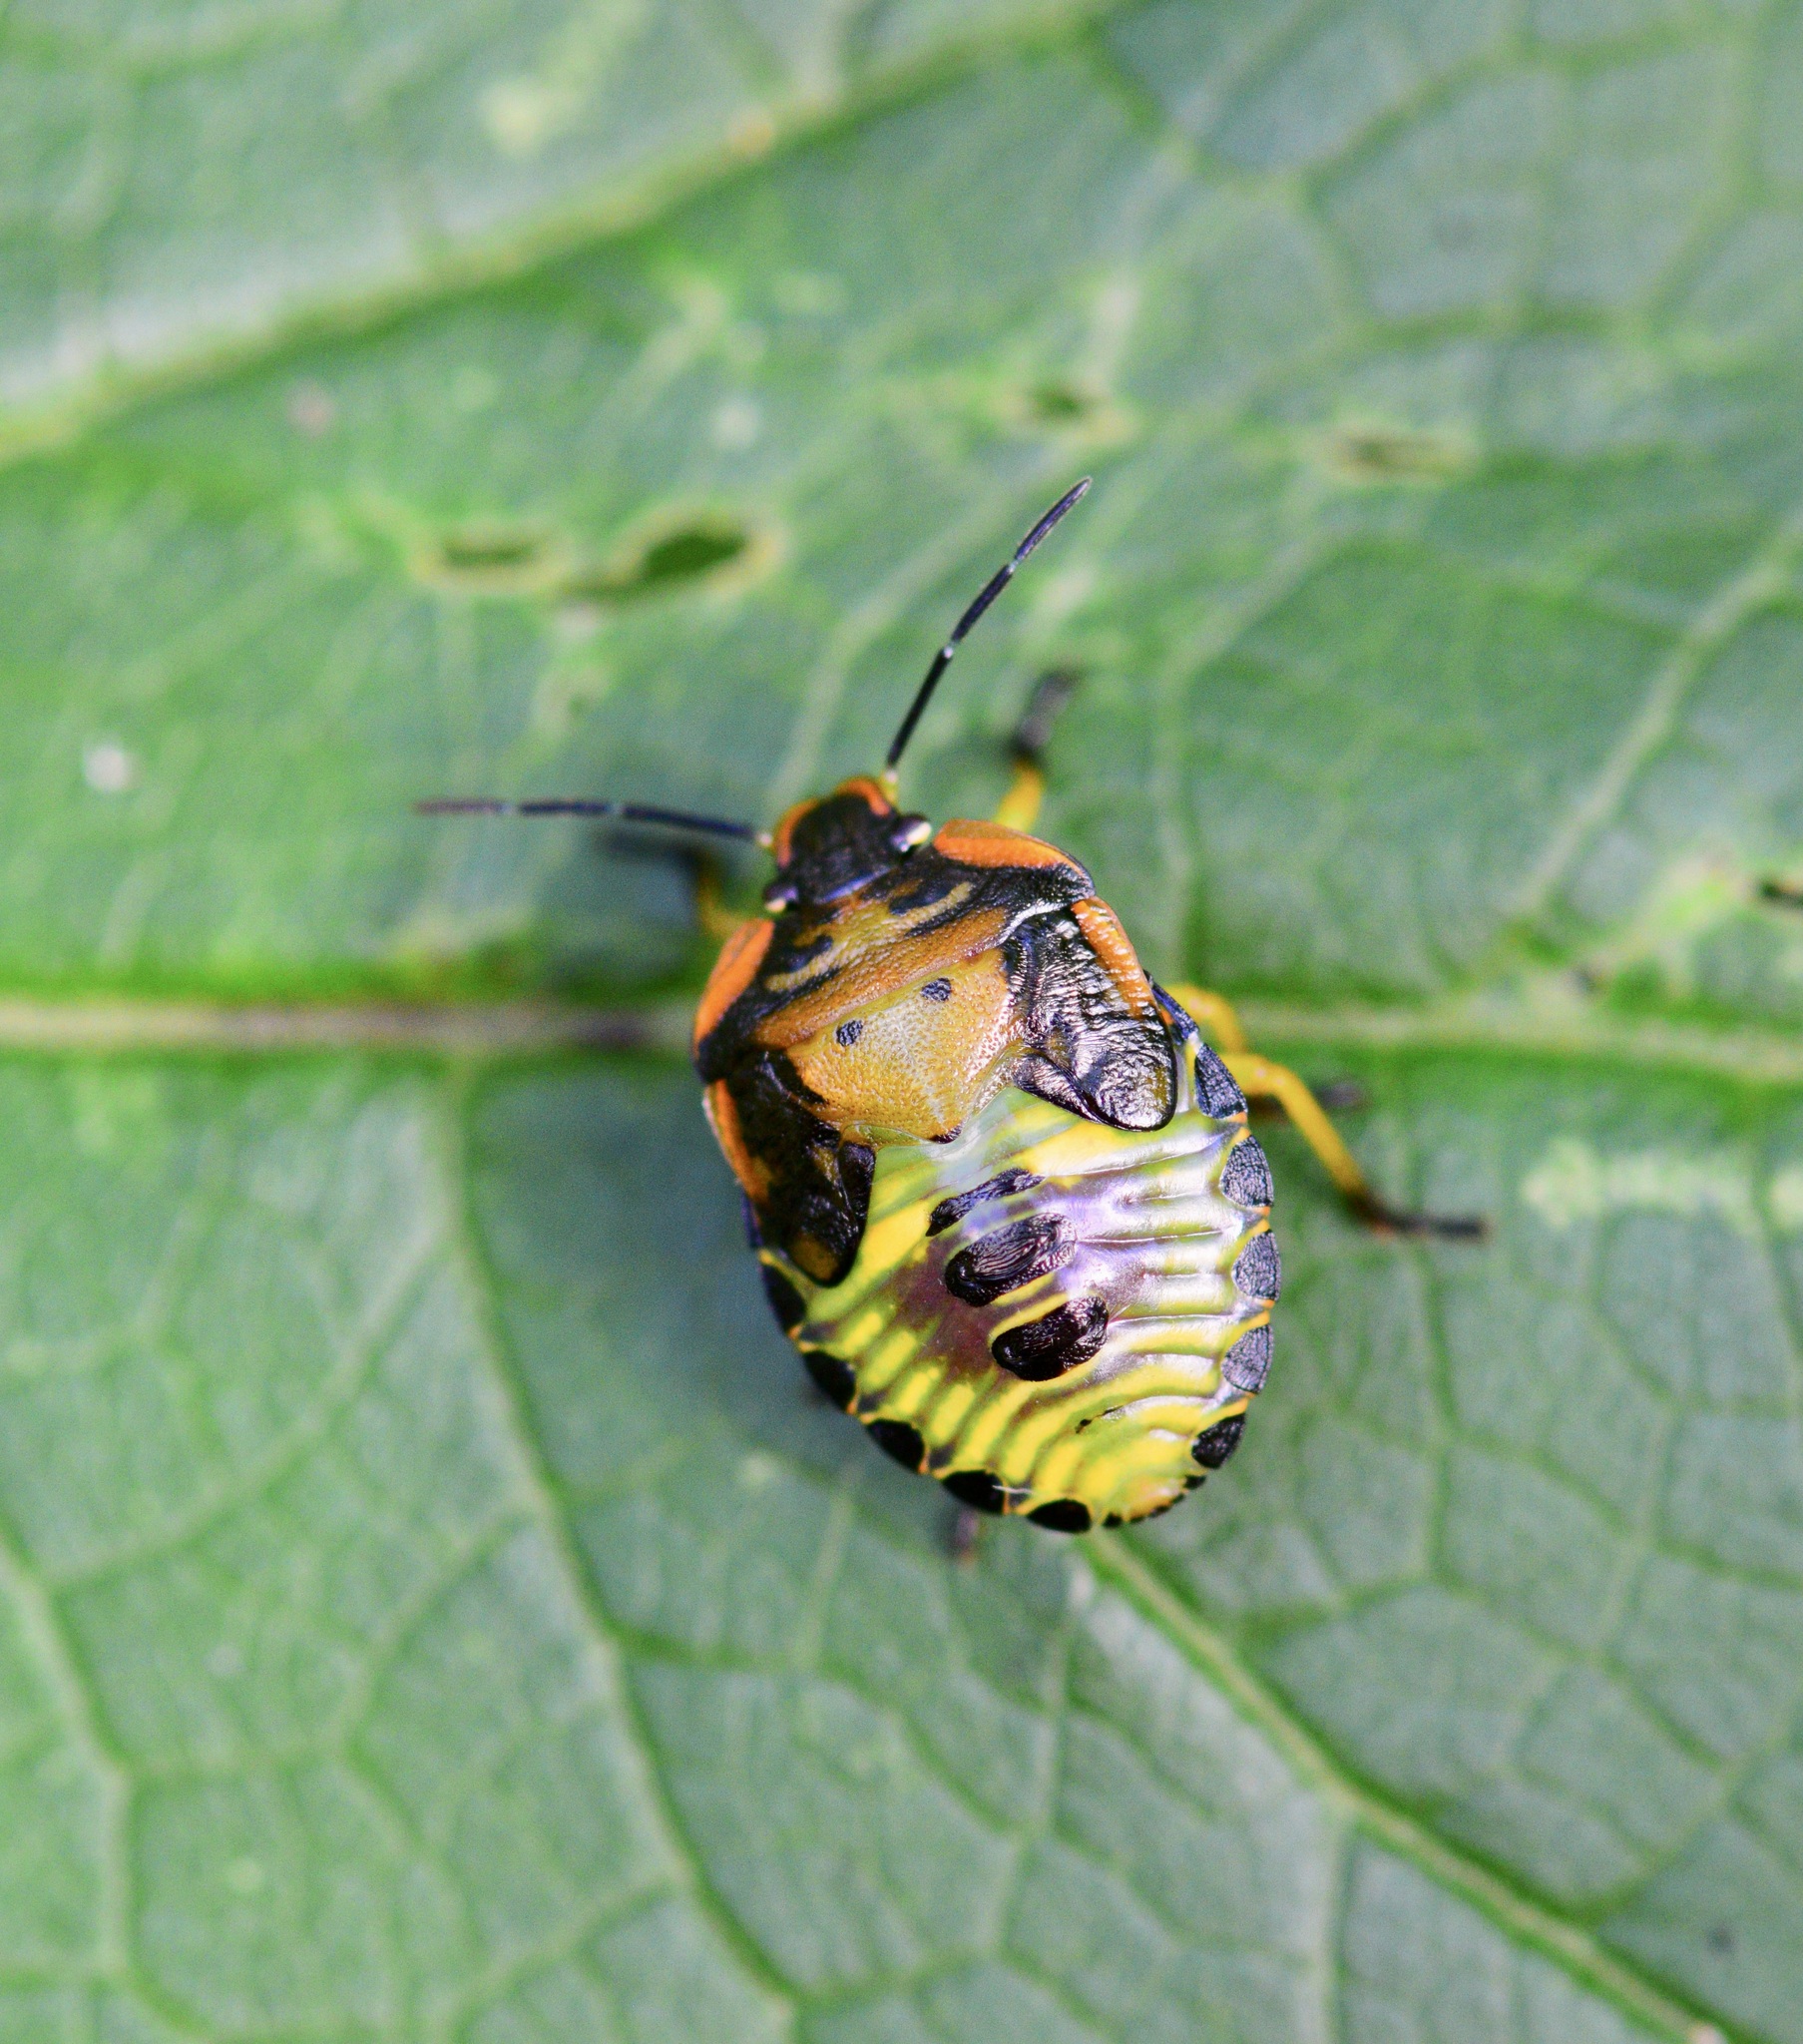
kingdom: Animalia
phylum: Arthropoda
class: Insecta
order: Hemiptera
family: Pentatomidae
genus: Chinavia
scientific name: Chinavia hilaris
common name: Green stink bug
